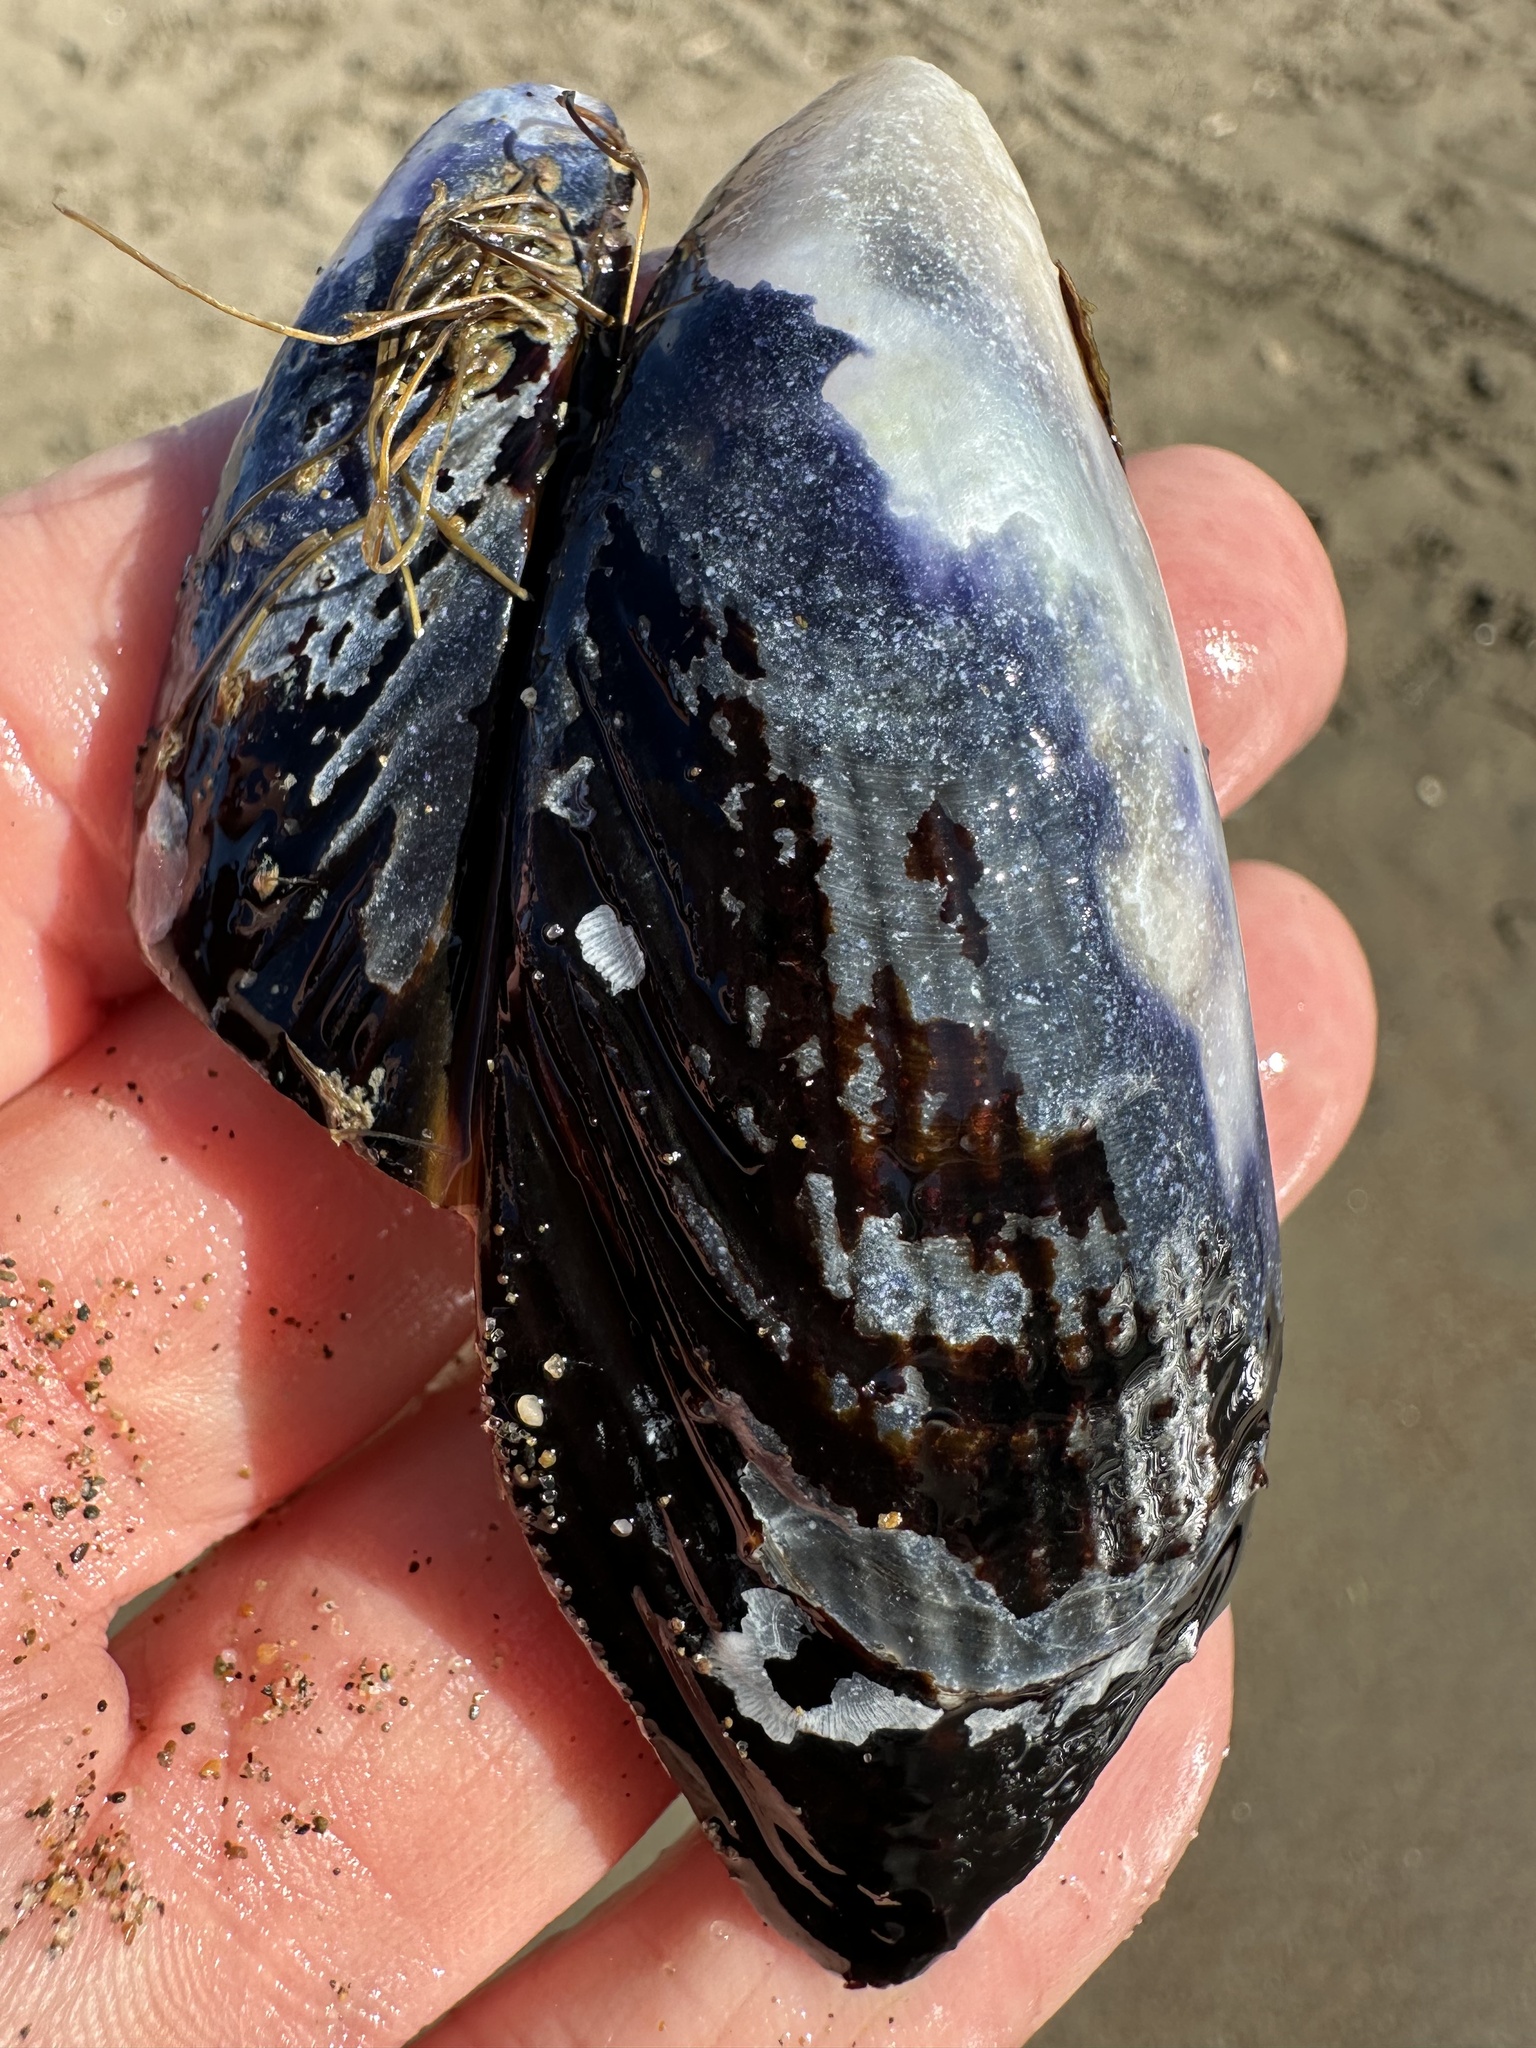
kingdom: Animalia
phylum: Mollusca
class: Bivalvia
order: Mytilida
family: Mytilidae
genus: Mytilus
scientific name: Mytilus californianus
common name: California mussel
